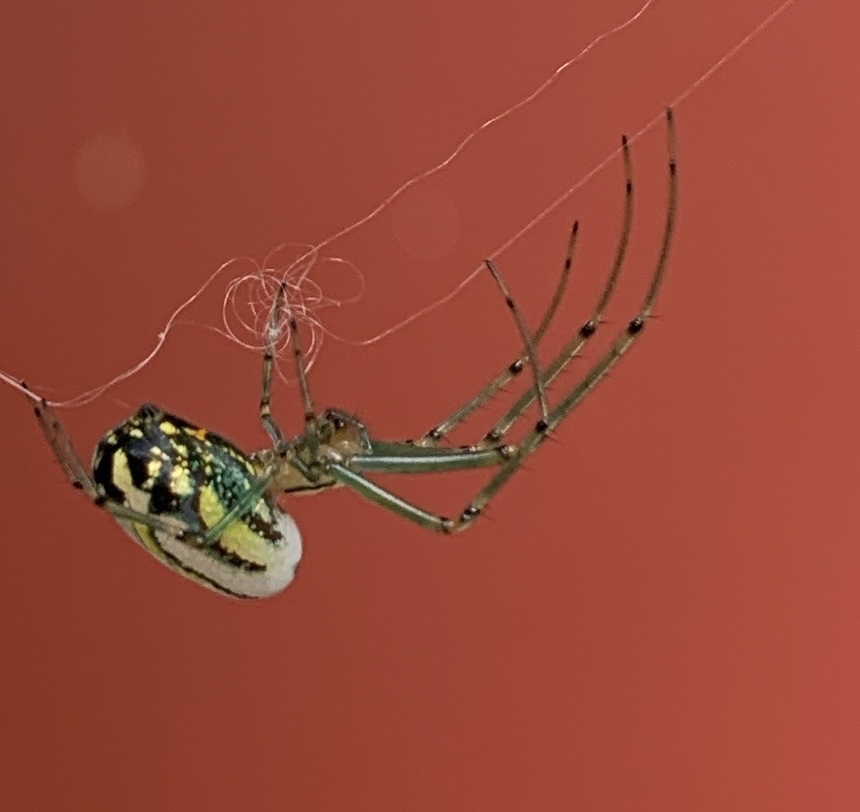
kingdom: Animalia
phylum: Arthropoda
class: Arachnida
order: Araneae
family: Tetragnathidae
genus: Leucauge
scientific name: Leucauge venusta
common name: Longjawed orb weavers
